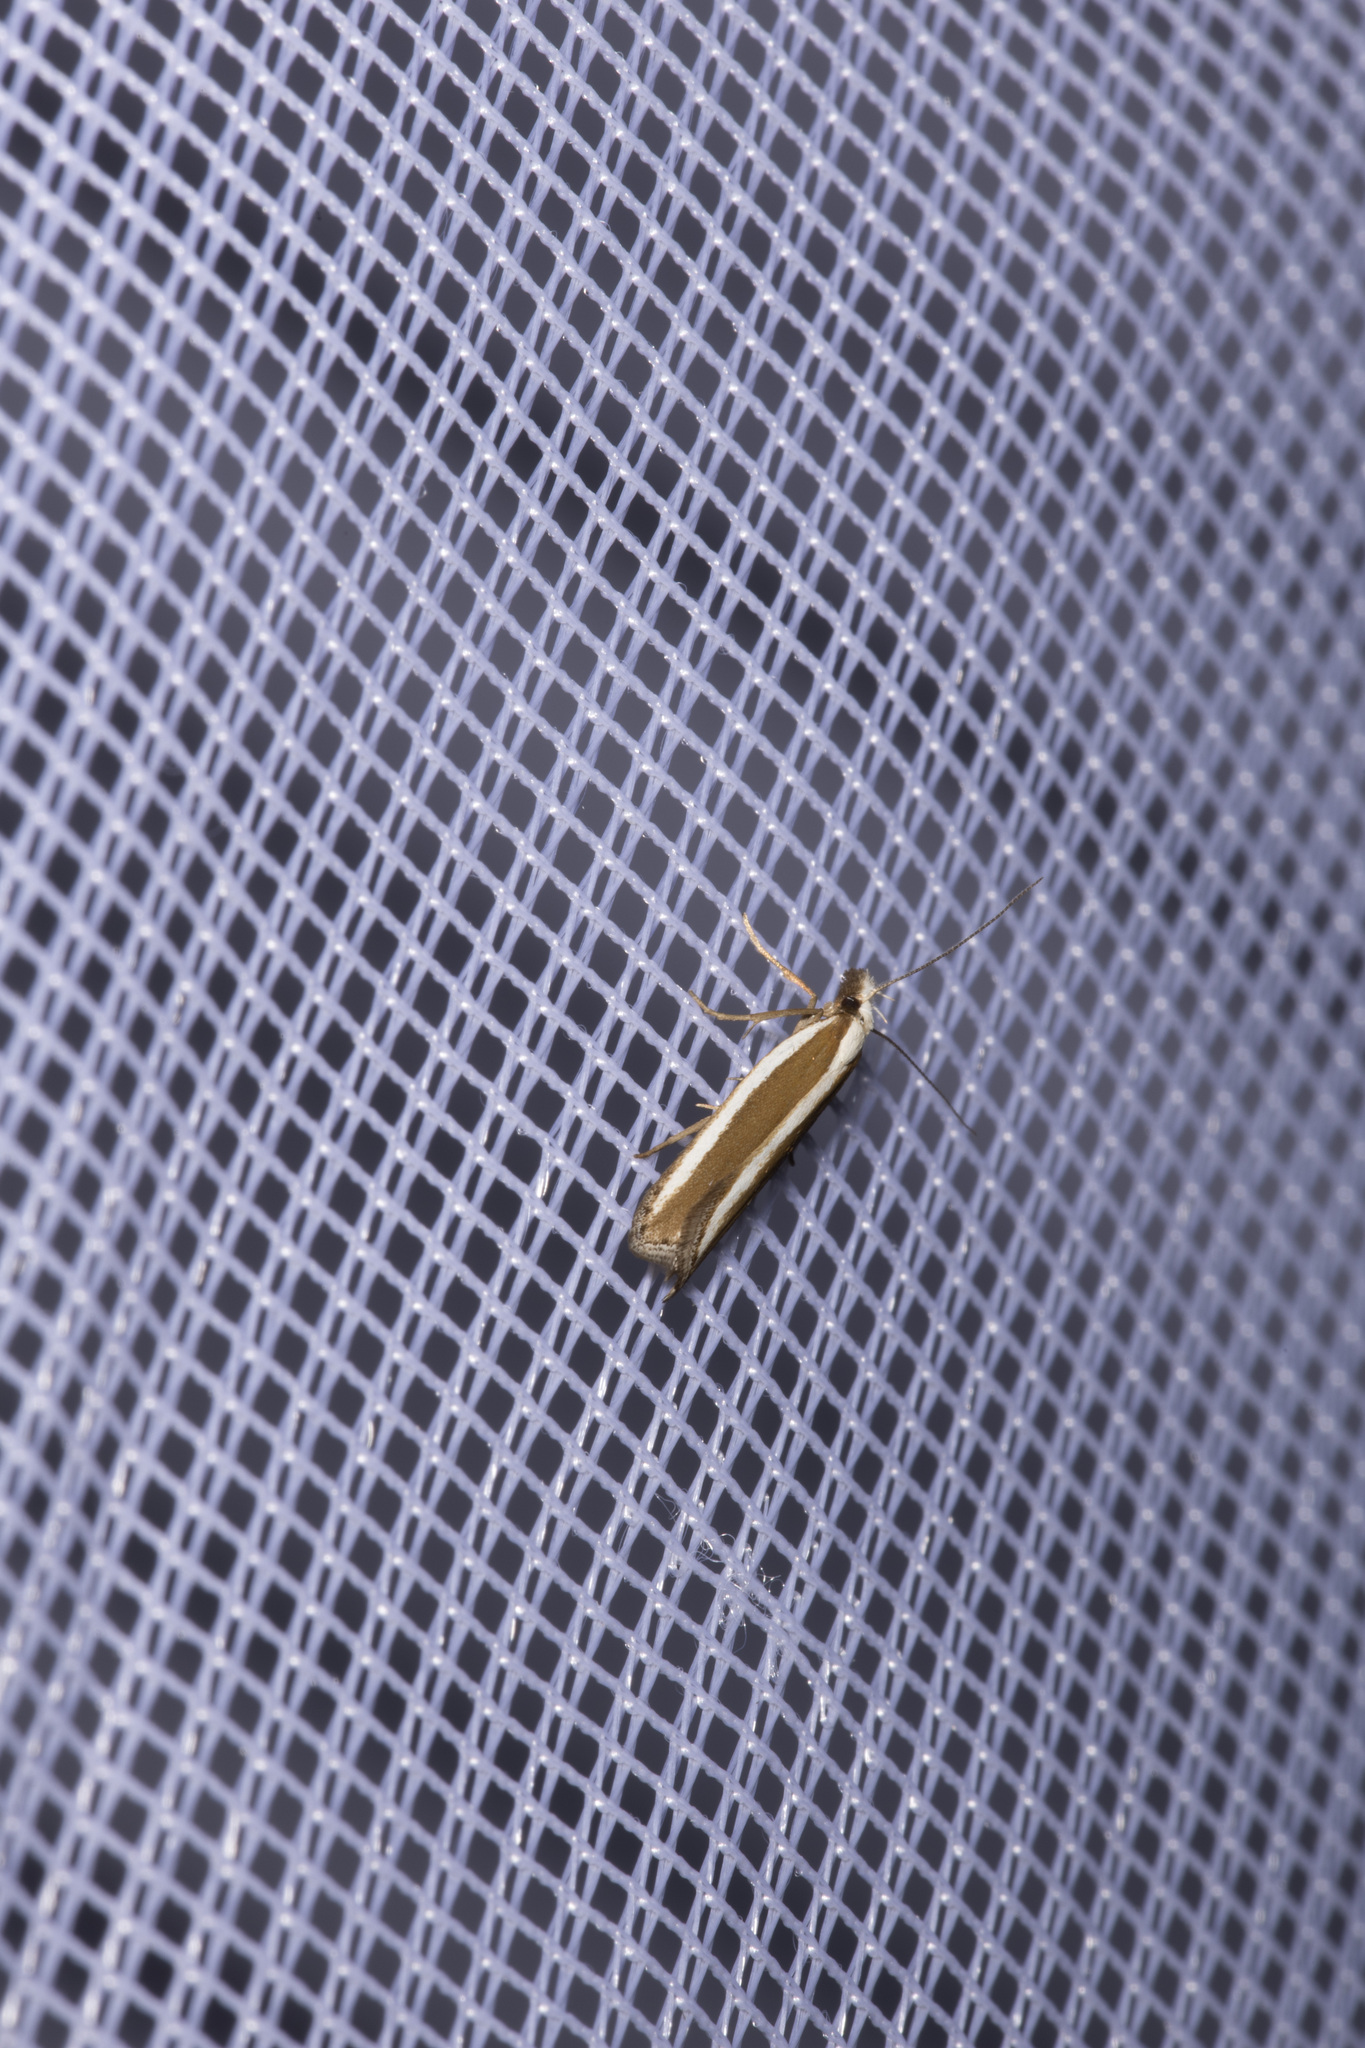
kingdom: Animalia
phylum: Arthropoda
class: Insecta
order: Lepidoptera
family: Gelechiidae
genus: Dichomeris
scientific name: Dichomeris marginella
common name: Juniper webworm
